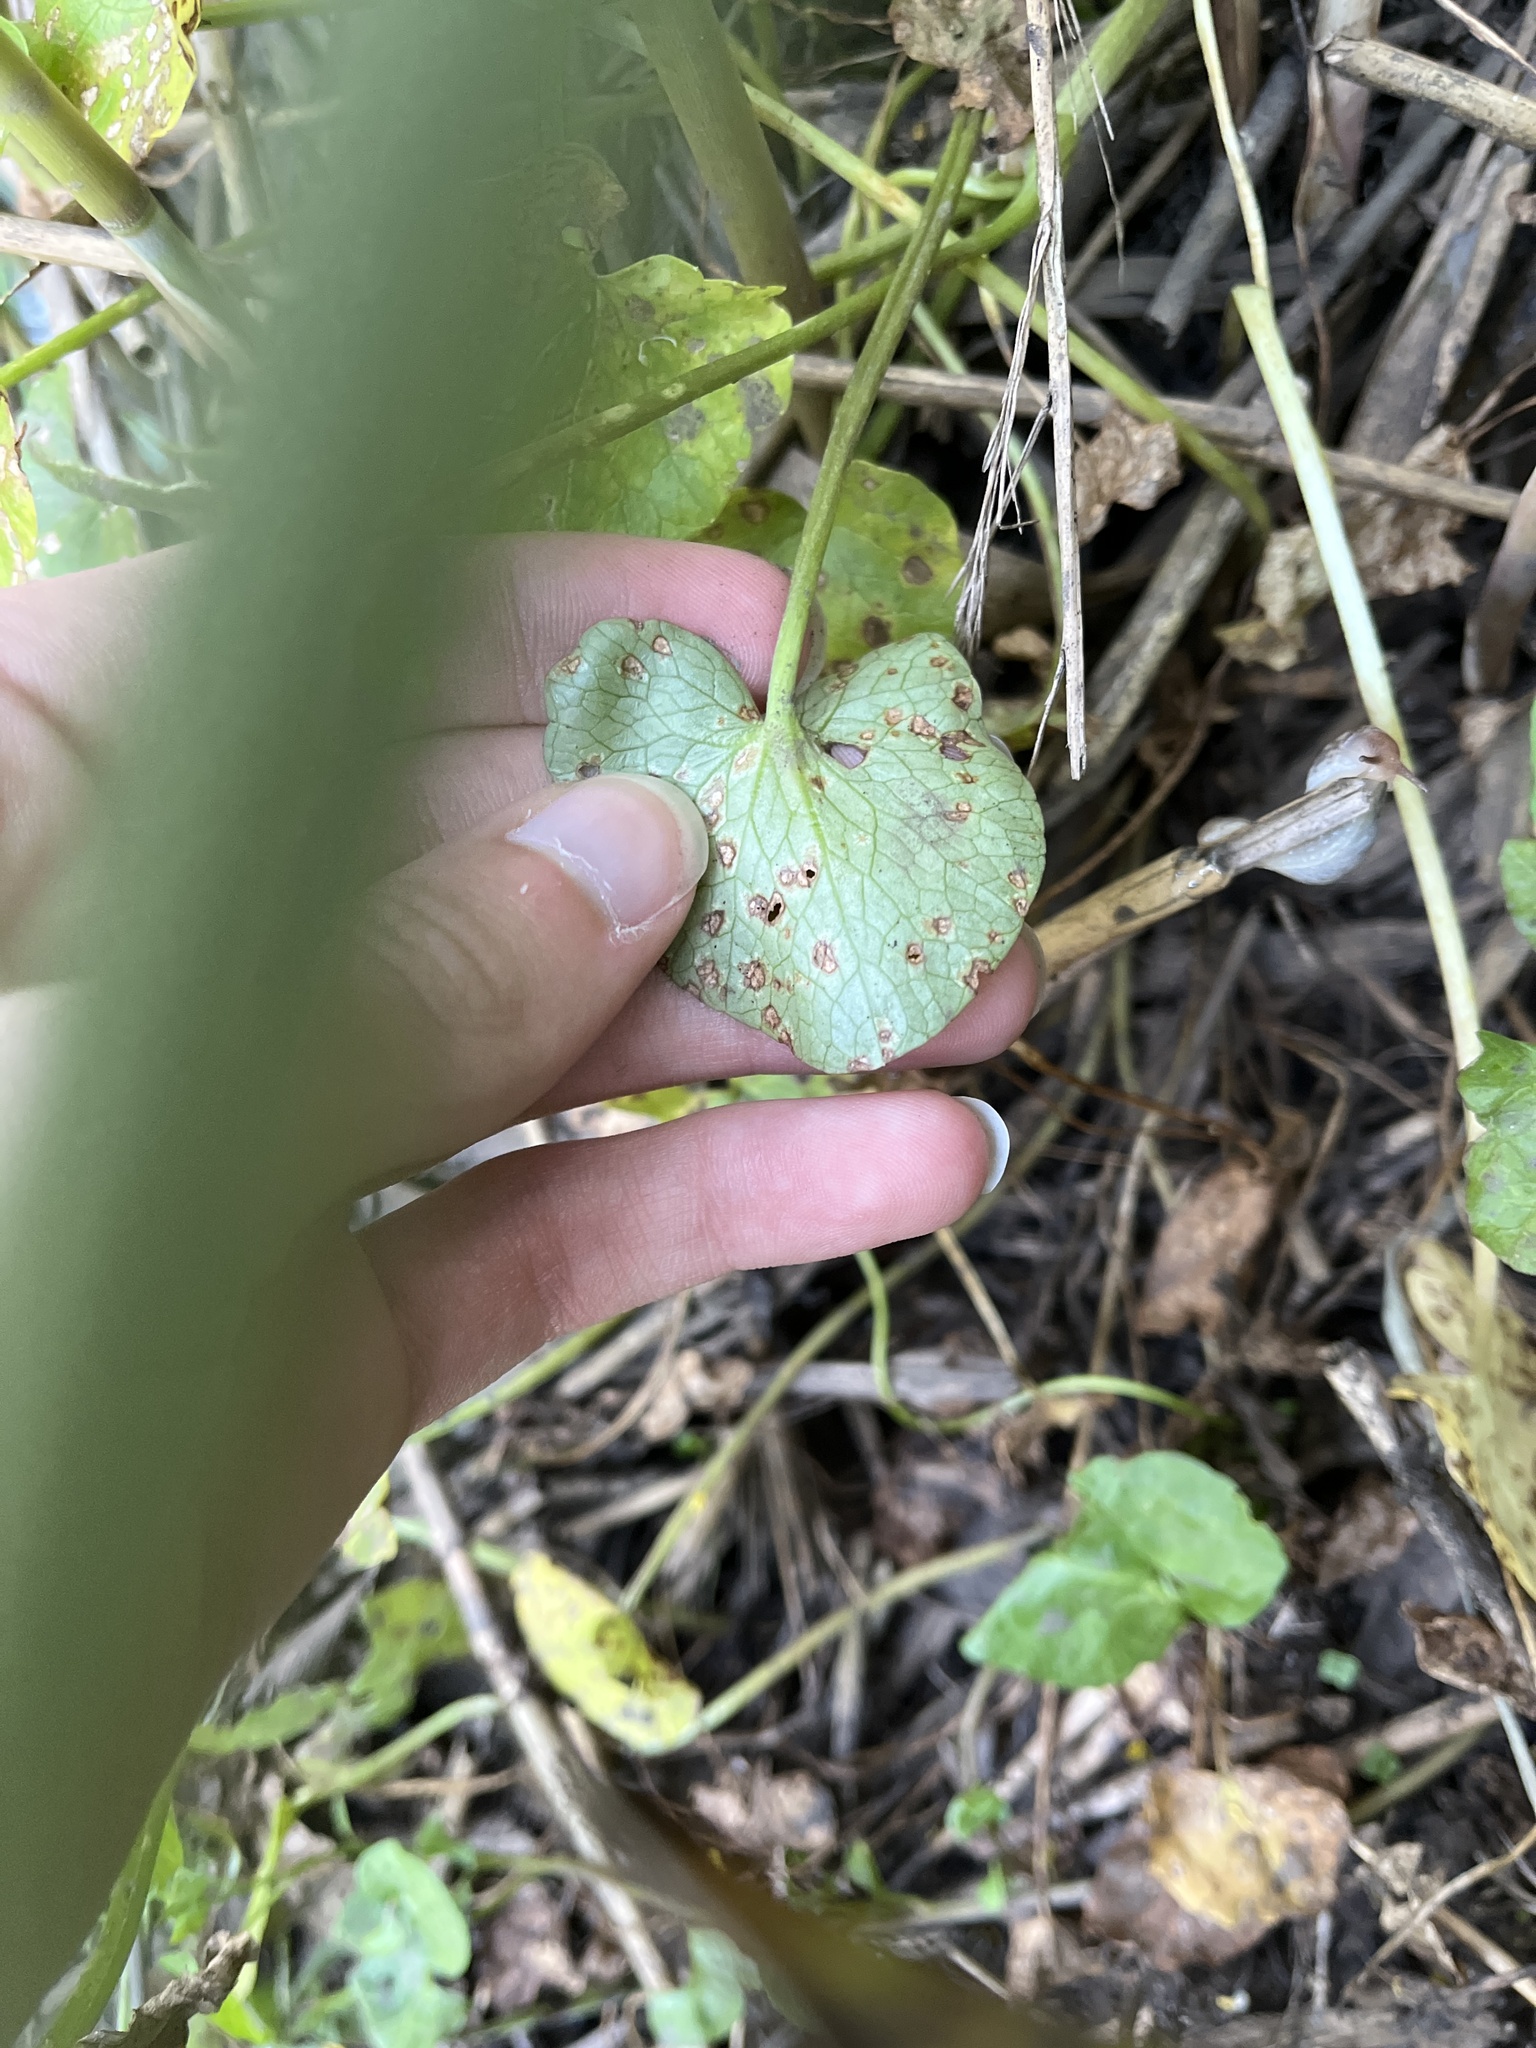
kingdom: Fungi
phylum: Basidiomycota
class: Exobasidiomycetes
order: Entylomatales
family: Entylomataceae
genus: Entyloma
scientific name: Entyloma ficariae
